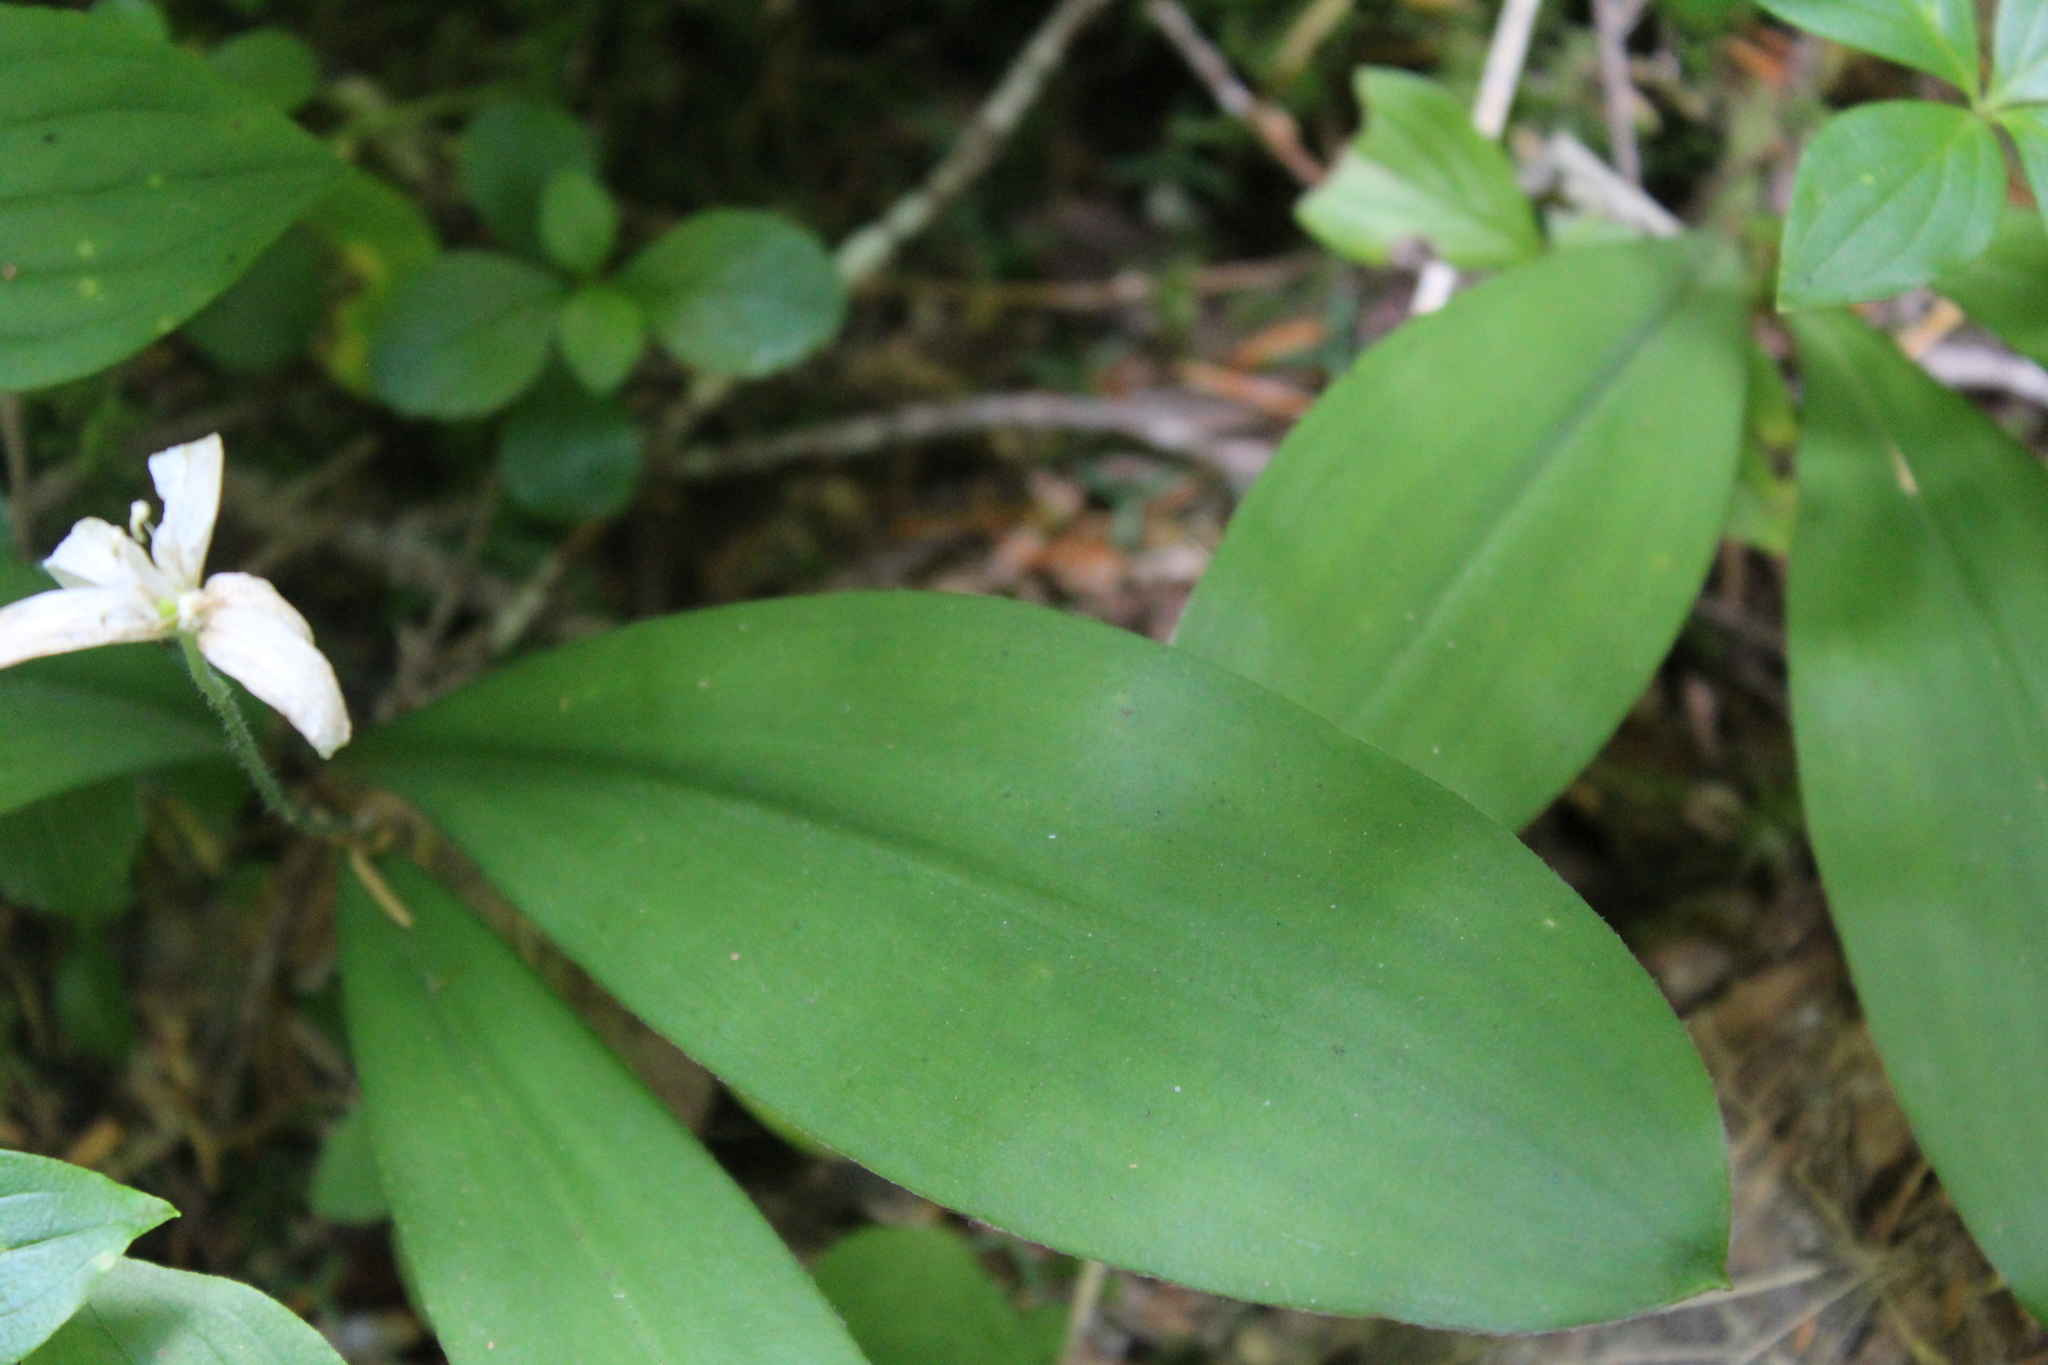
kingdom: Plantae
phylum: Tracheophyta
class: Liliopsida
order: Liliales
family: Liliaceae
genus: Clintonia
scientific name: Clintonia uniflora
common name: Queen's cup
